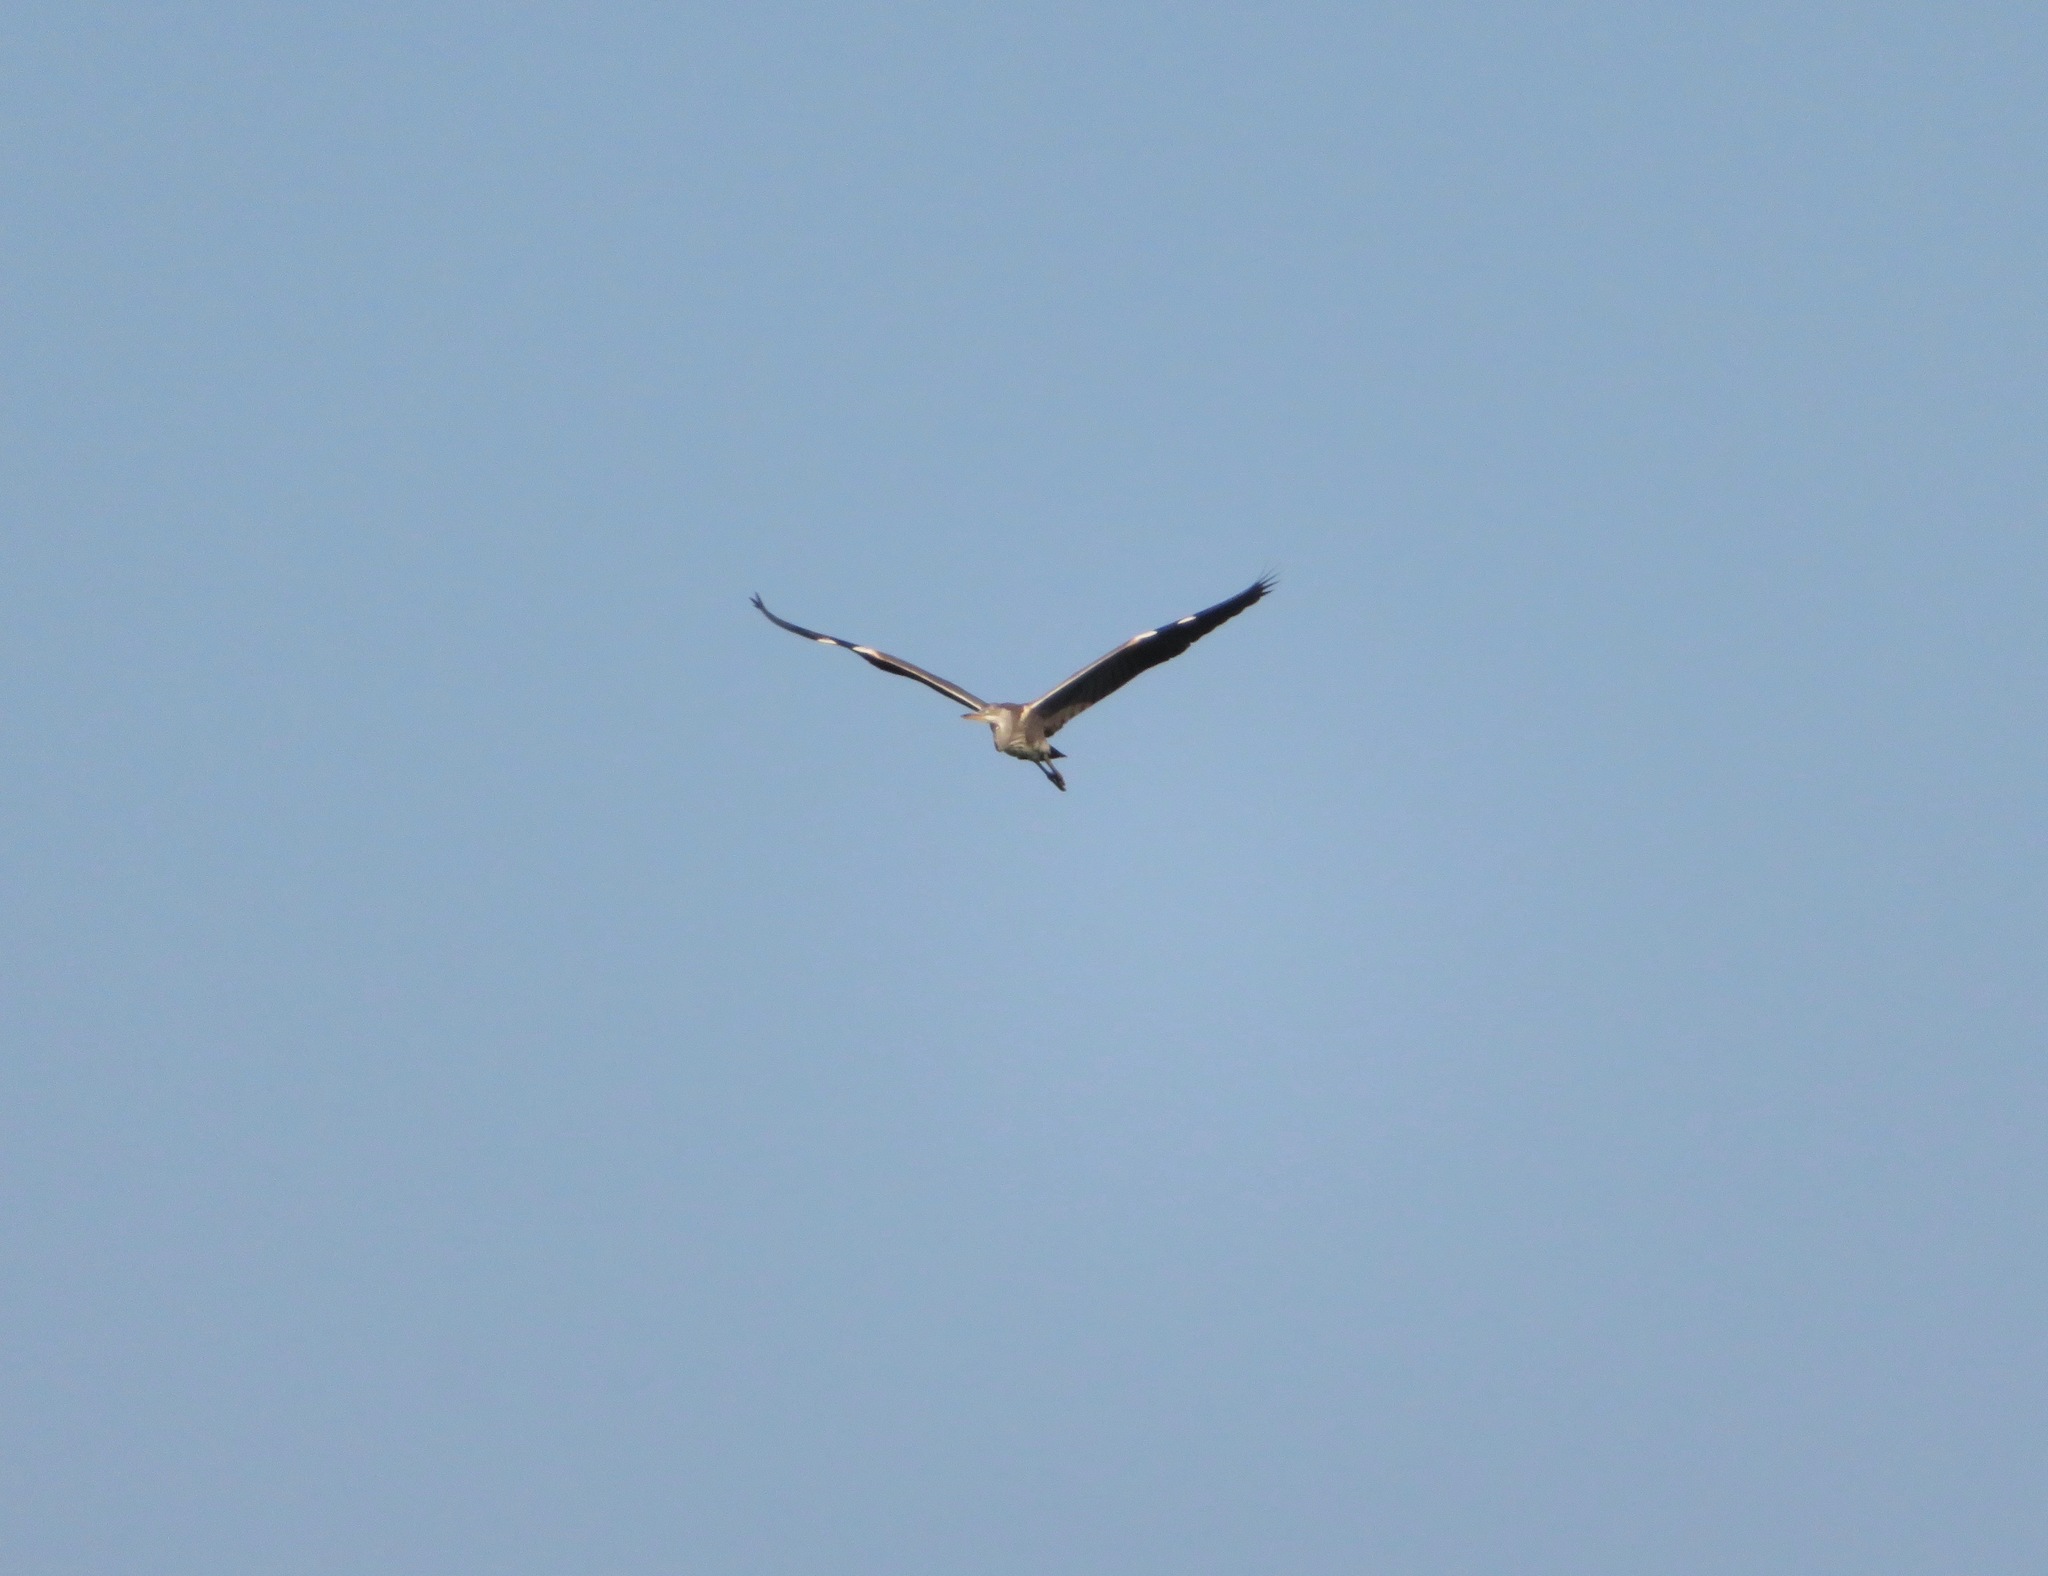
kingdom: Animalia
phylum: Chordata
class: Aves
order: Pelecaniformes
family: Ardeidae
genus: Ardea
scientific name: Ardea cinerea
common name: Grey heron
